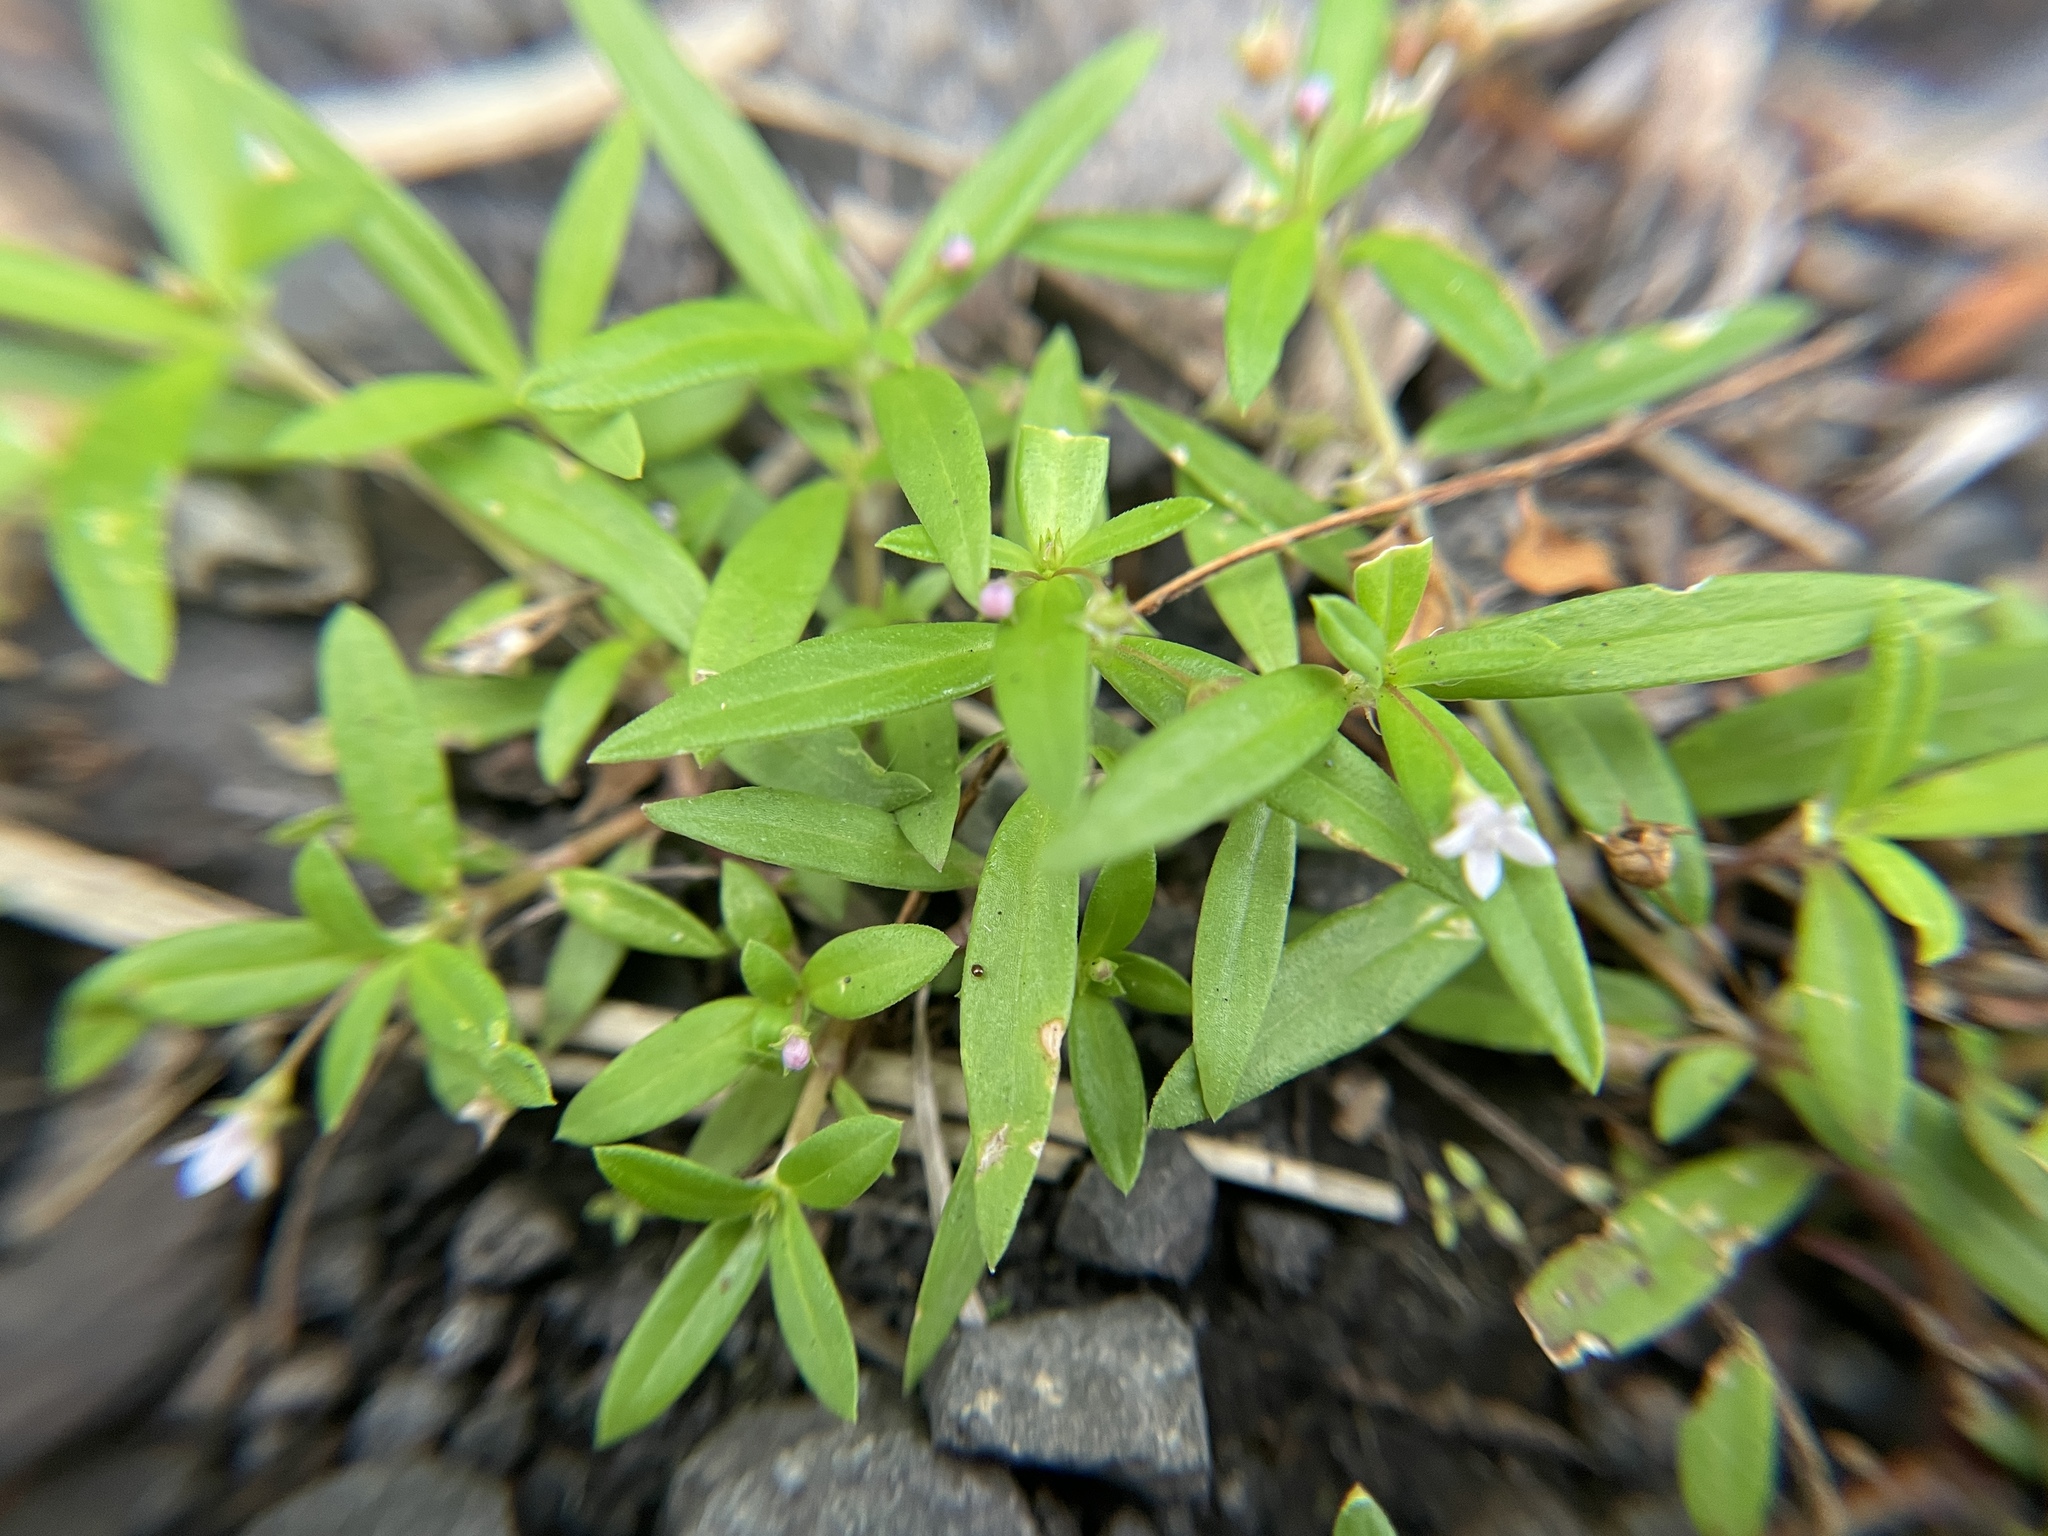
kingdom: Plantae
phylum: Tracheophyta
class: Magnoliopsida
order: Gentianales
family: Rubiaceae
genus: Oldenlandia
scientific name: Oldenlandia corymbosa
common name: Flat-top mille graines
